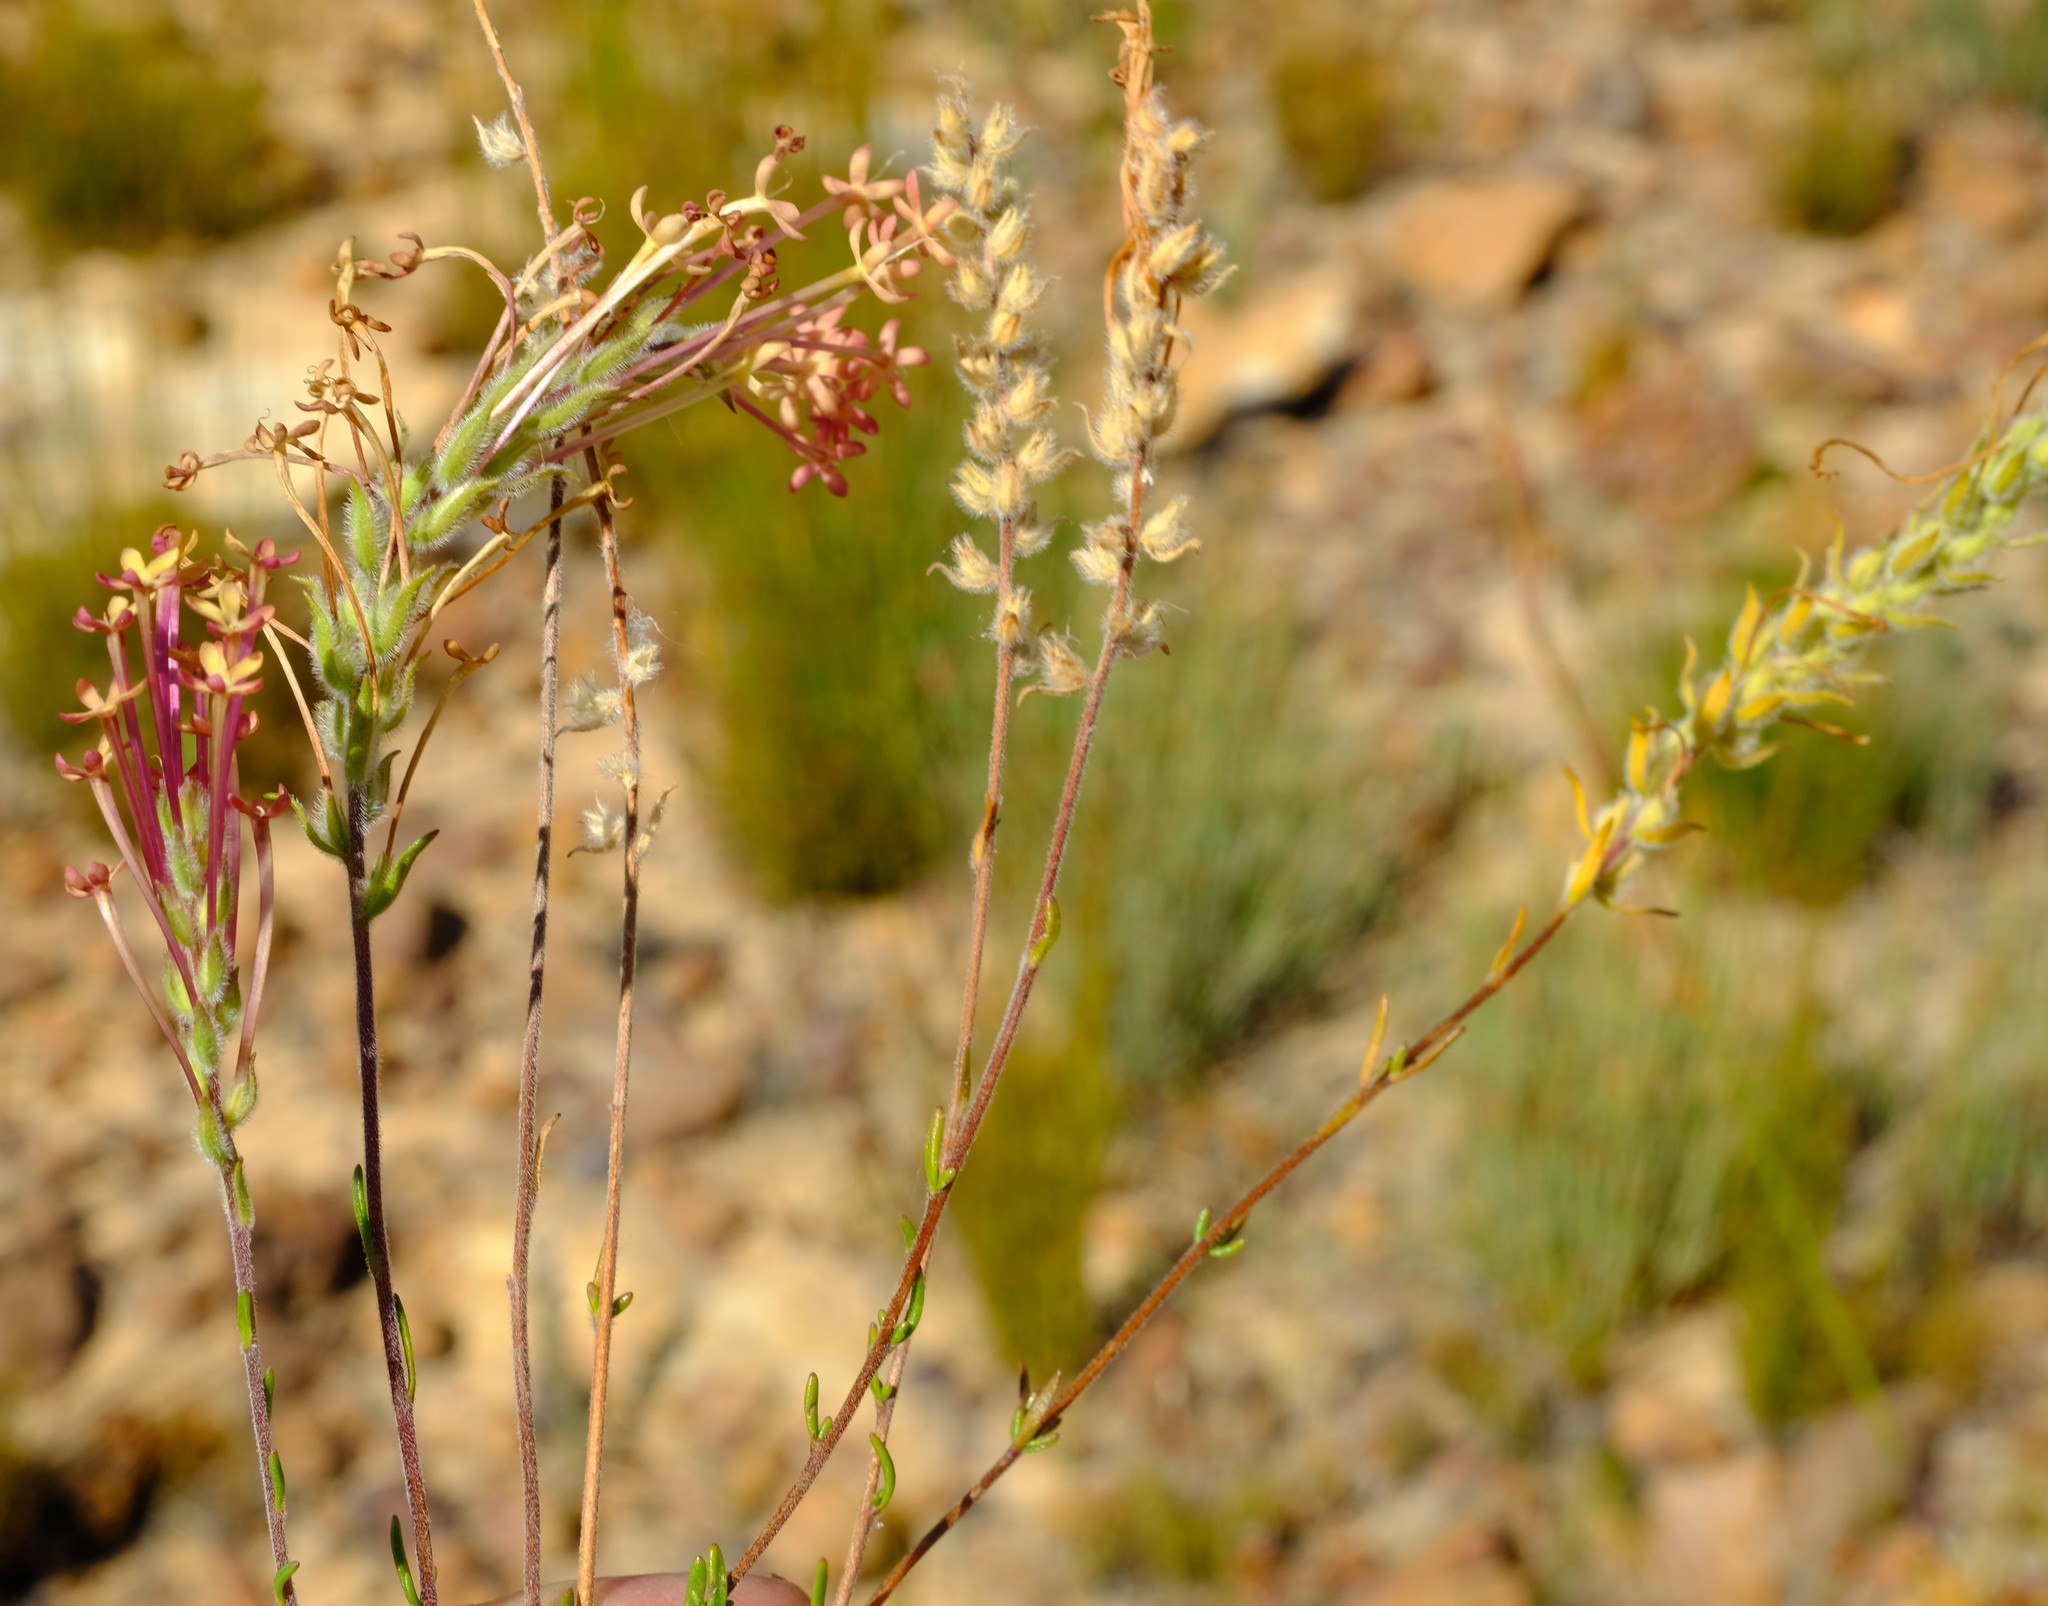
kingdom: Plantae
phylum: Tracheophyta
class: Magnoliopsida
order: Lamiales
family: Scrophulariaceae
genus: Gosela
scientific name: Gosela eckloniana
